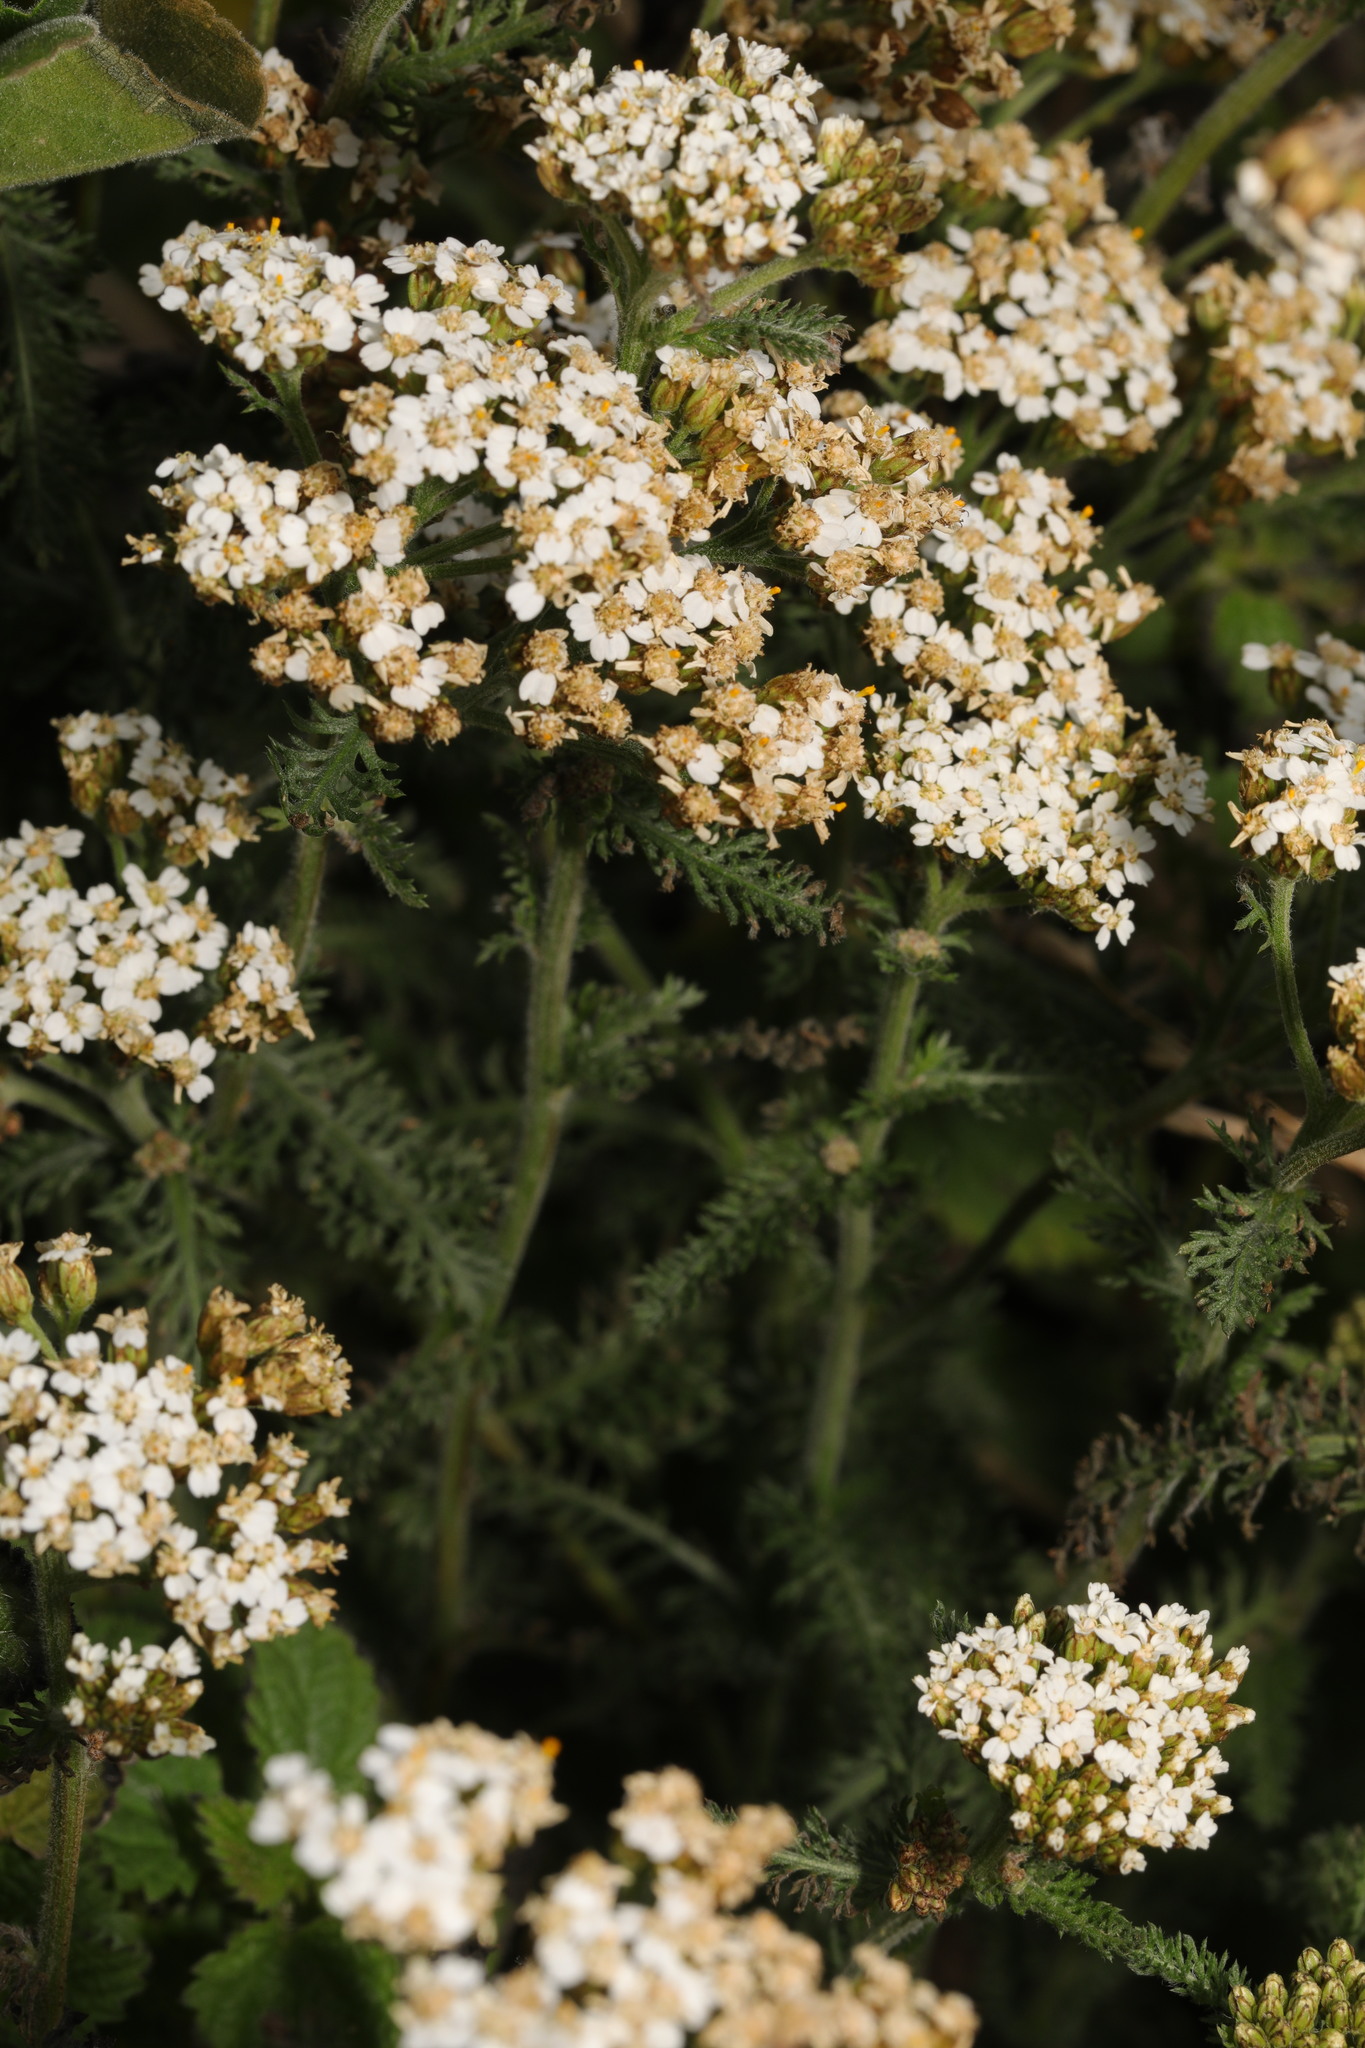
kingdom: Plantae
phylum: Tracheophyta
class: Magnoliopsida
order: Asterales
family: Asteraceae
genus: Achillea
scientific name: Achillea millefolium
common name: Yarrow
